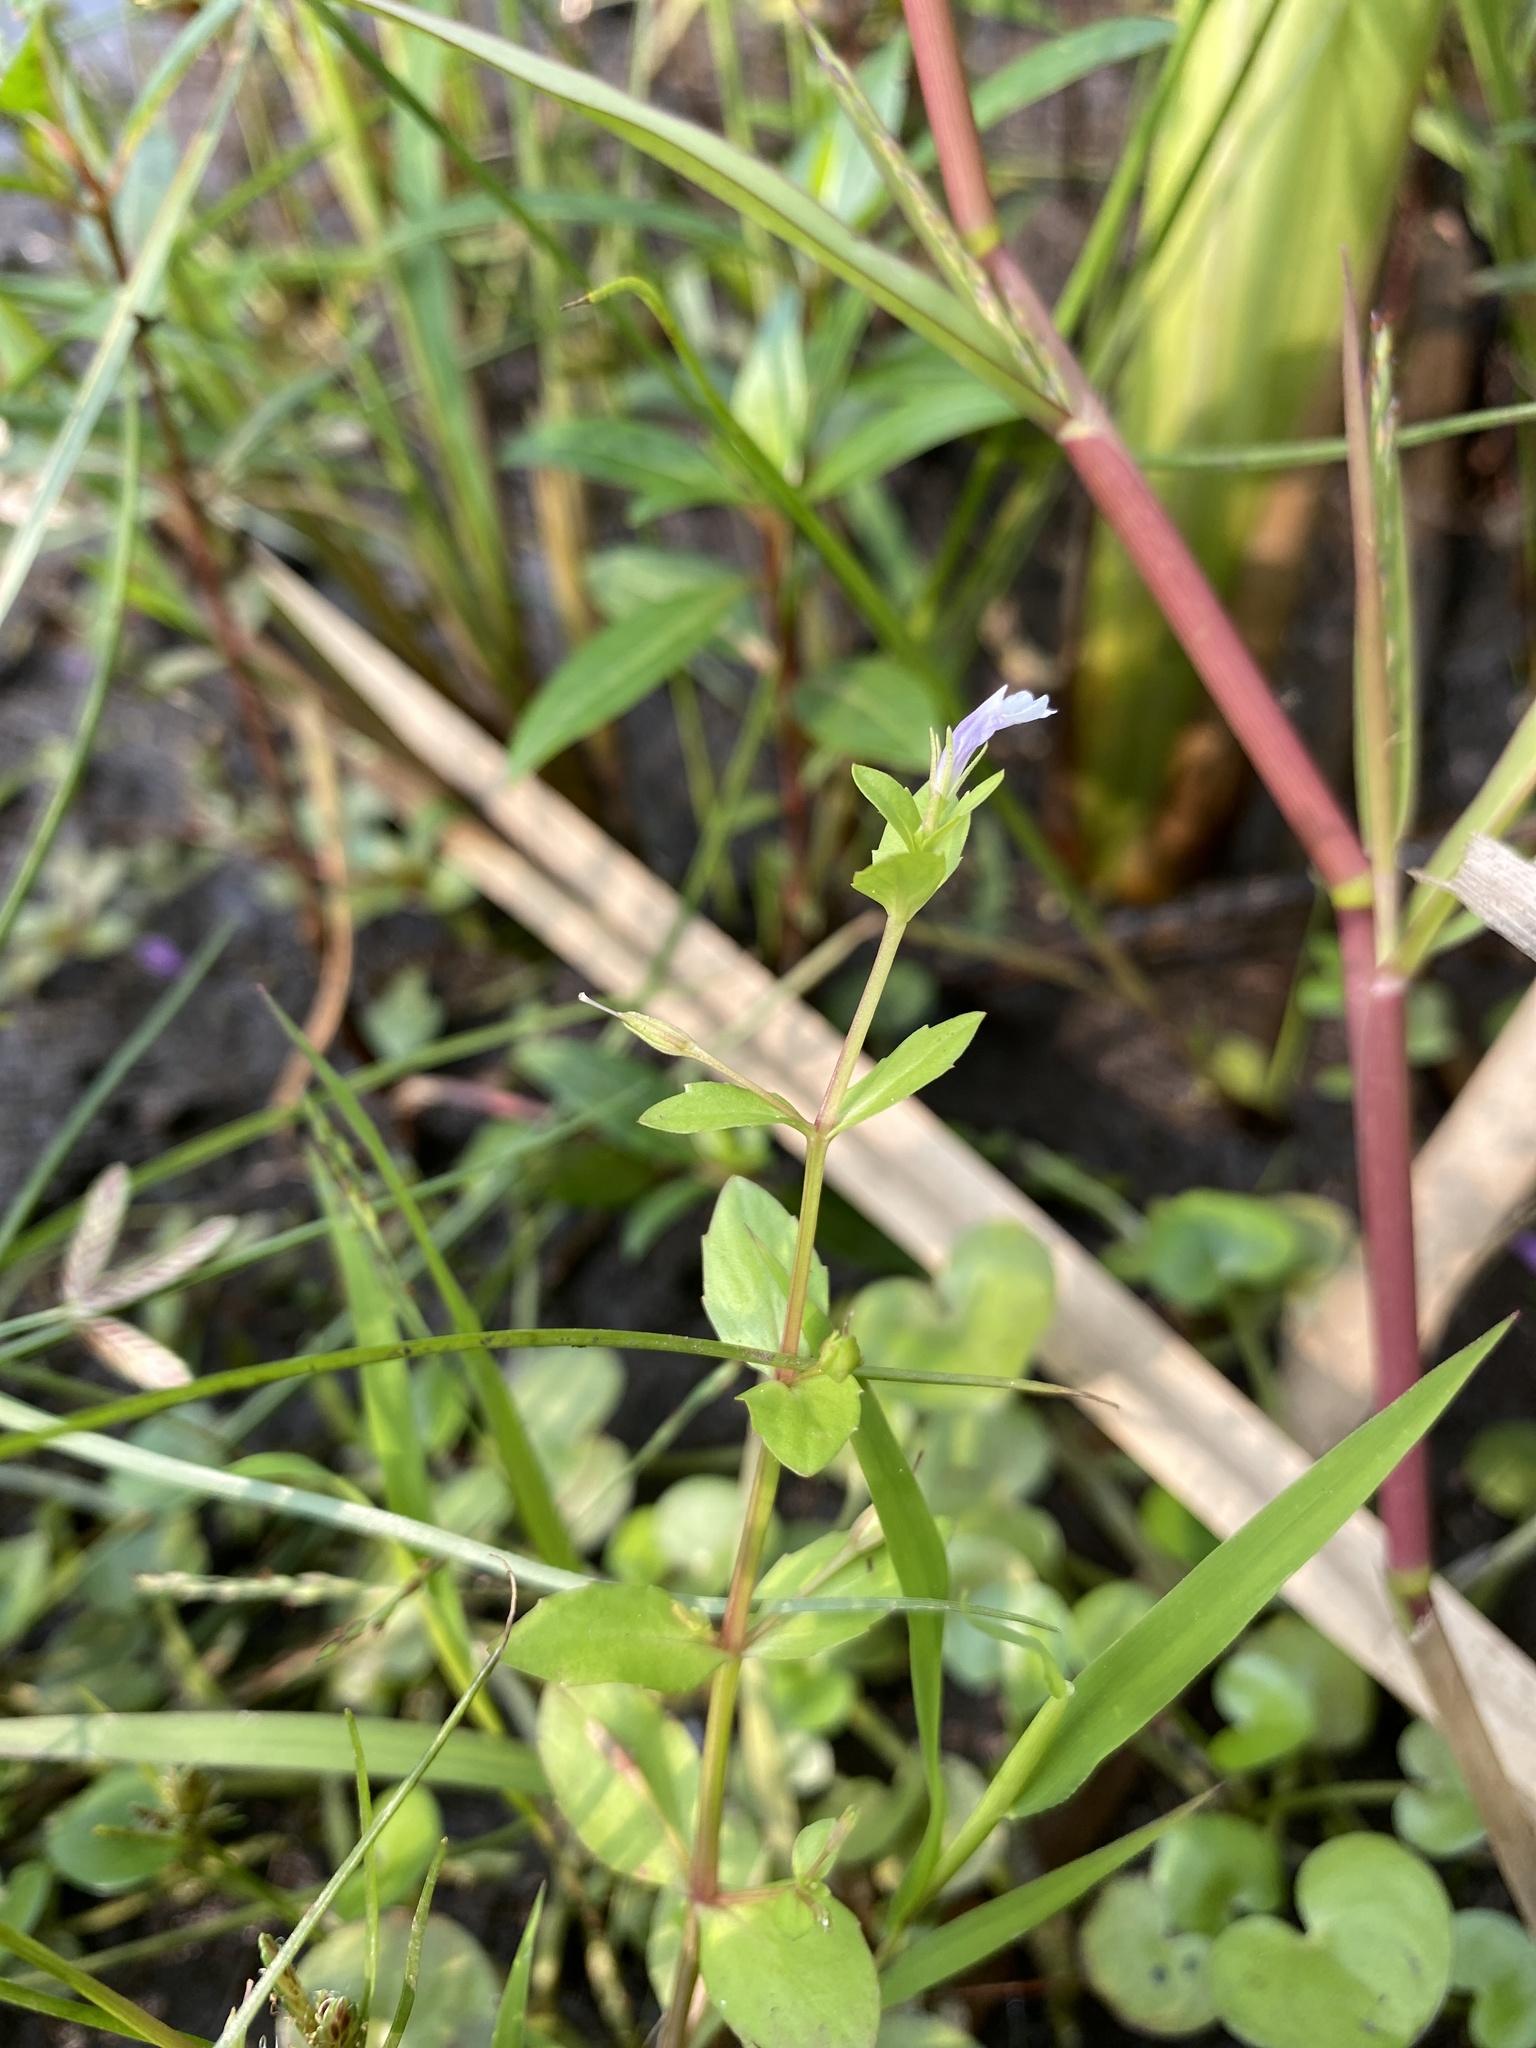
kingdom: Plantae
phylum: Tracheophyta
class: Magnoliopsida
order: Lamiales
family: Linderniaceae
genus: Lindernia
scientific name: Lindernia dubia
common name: Annual false pimpernel
